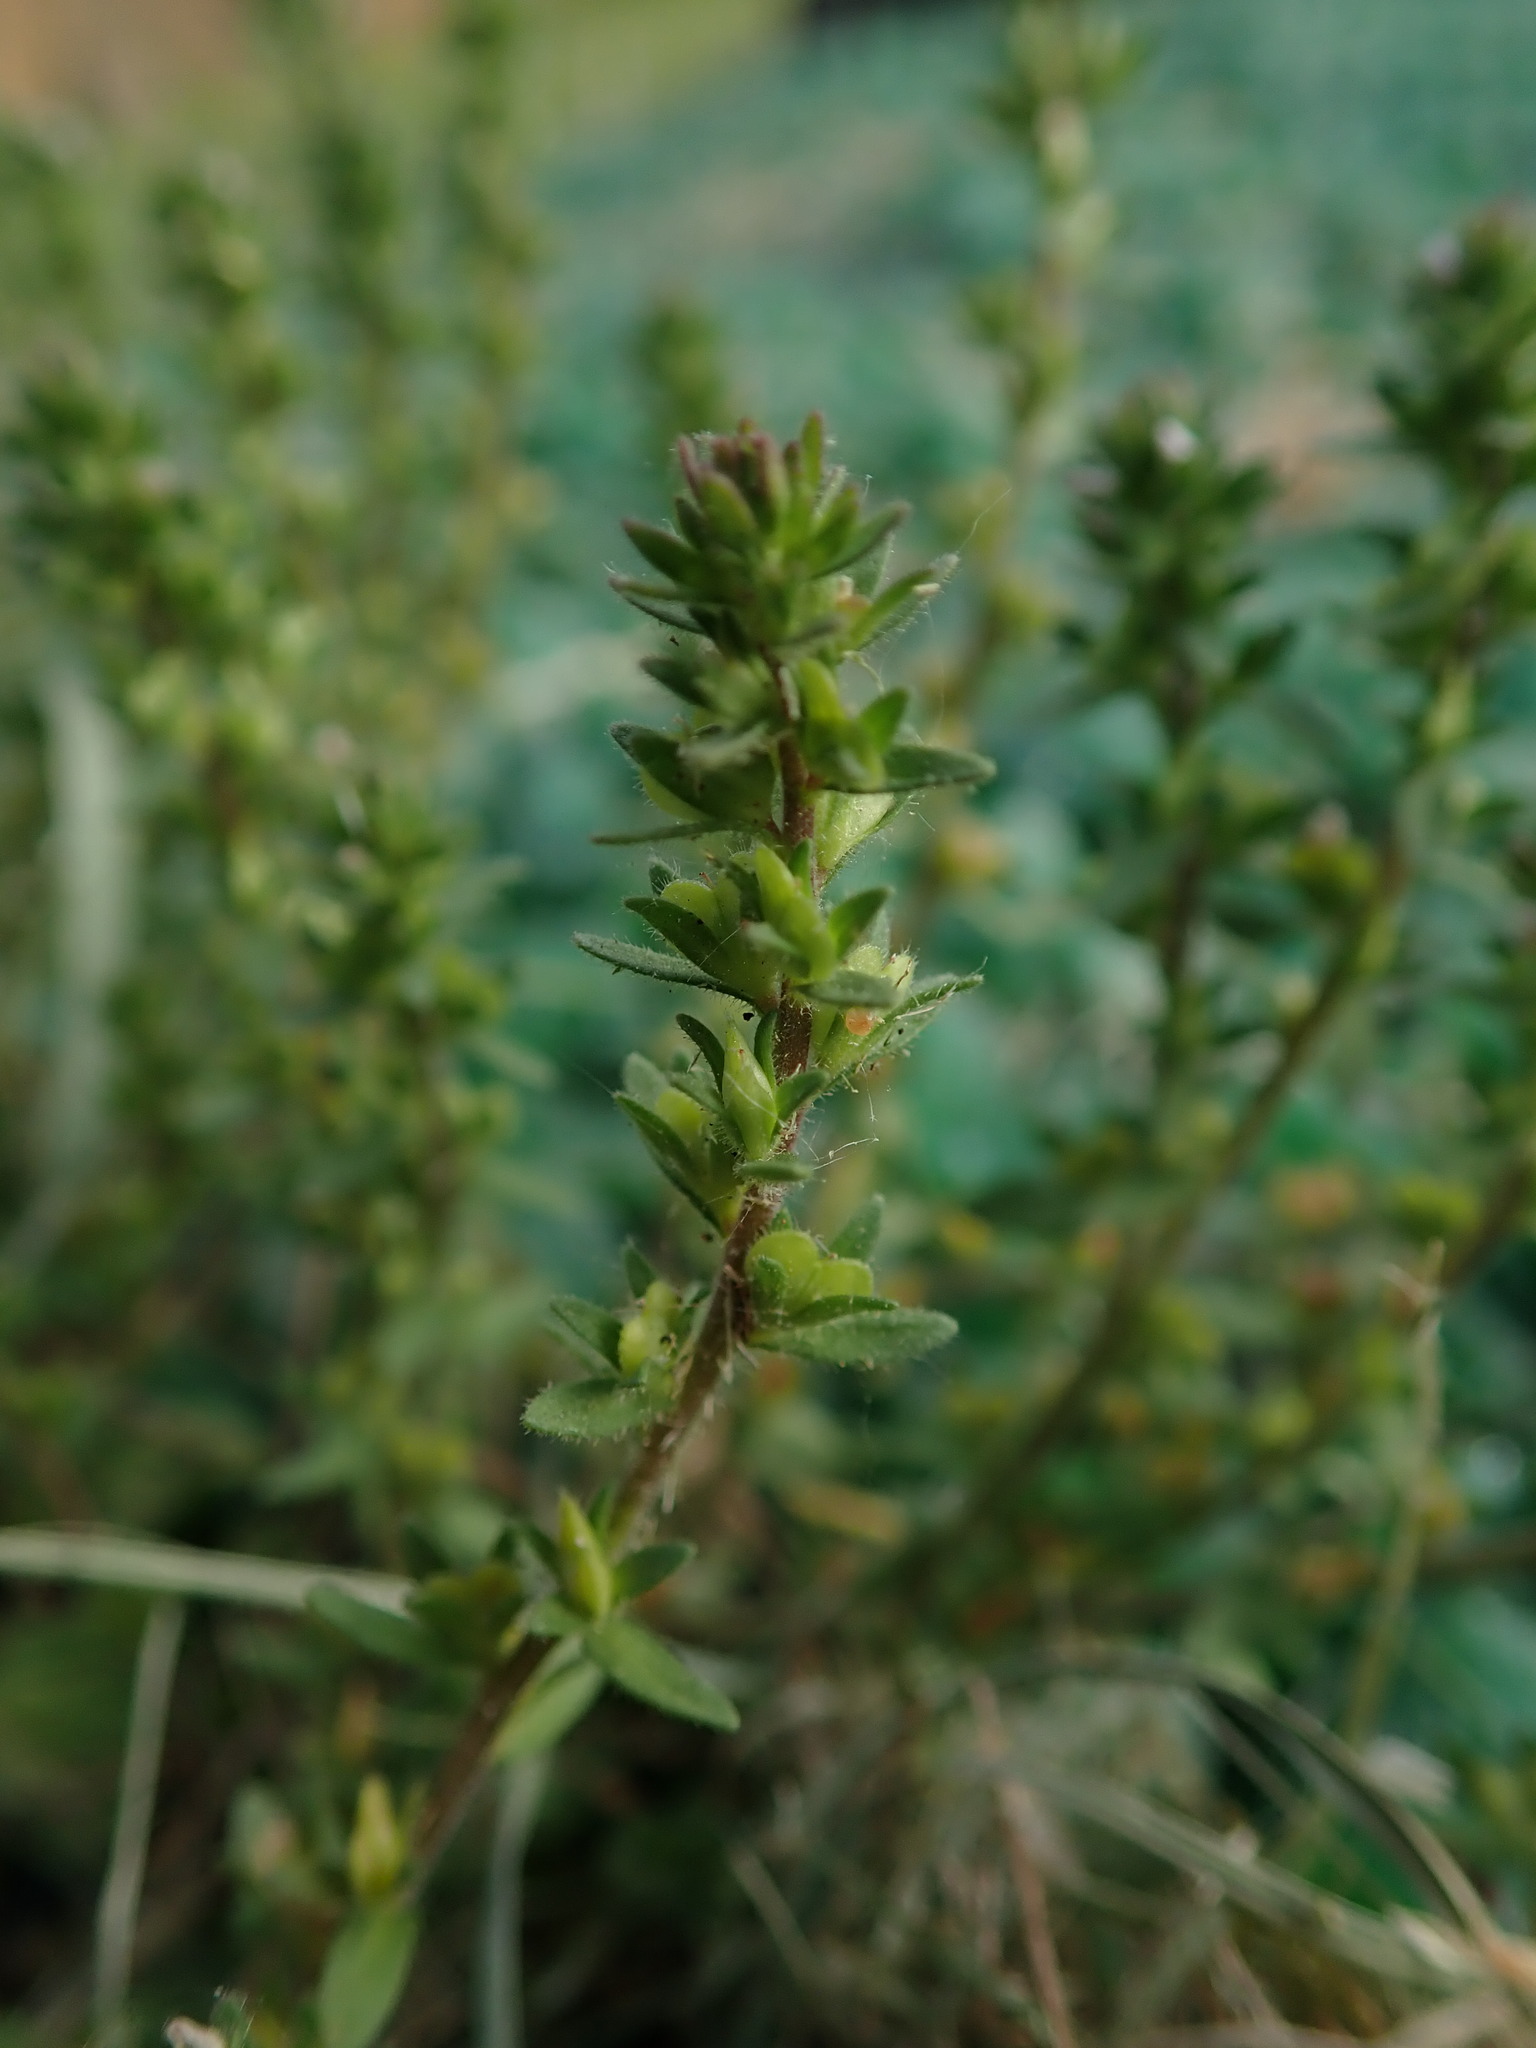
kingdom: Plantae
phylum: Tracheophyta
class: Magnoliopsida
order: Lamiales
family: Plantaginaceae
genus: Veronica
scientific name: Veronica arvensis
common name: Corn speedwell
